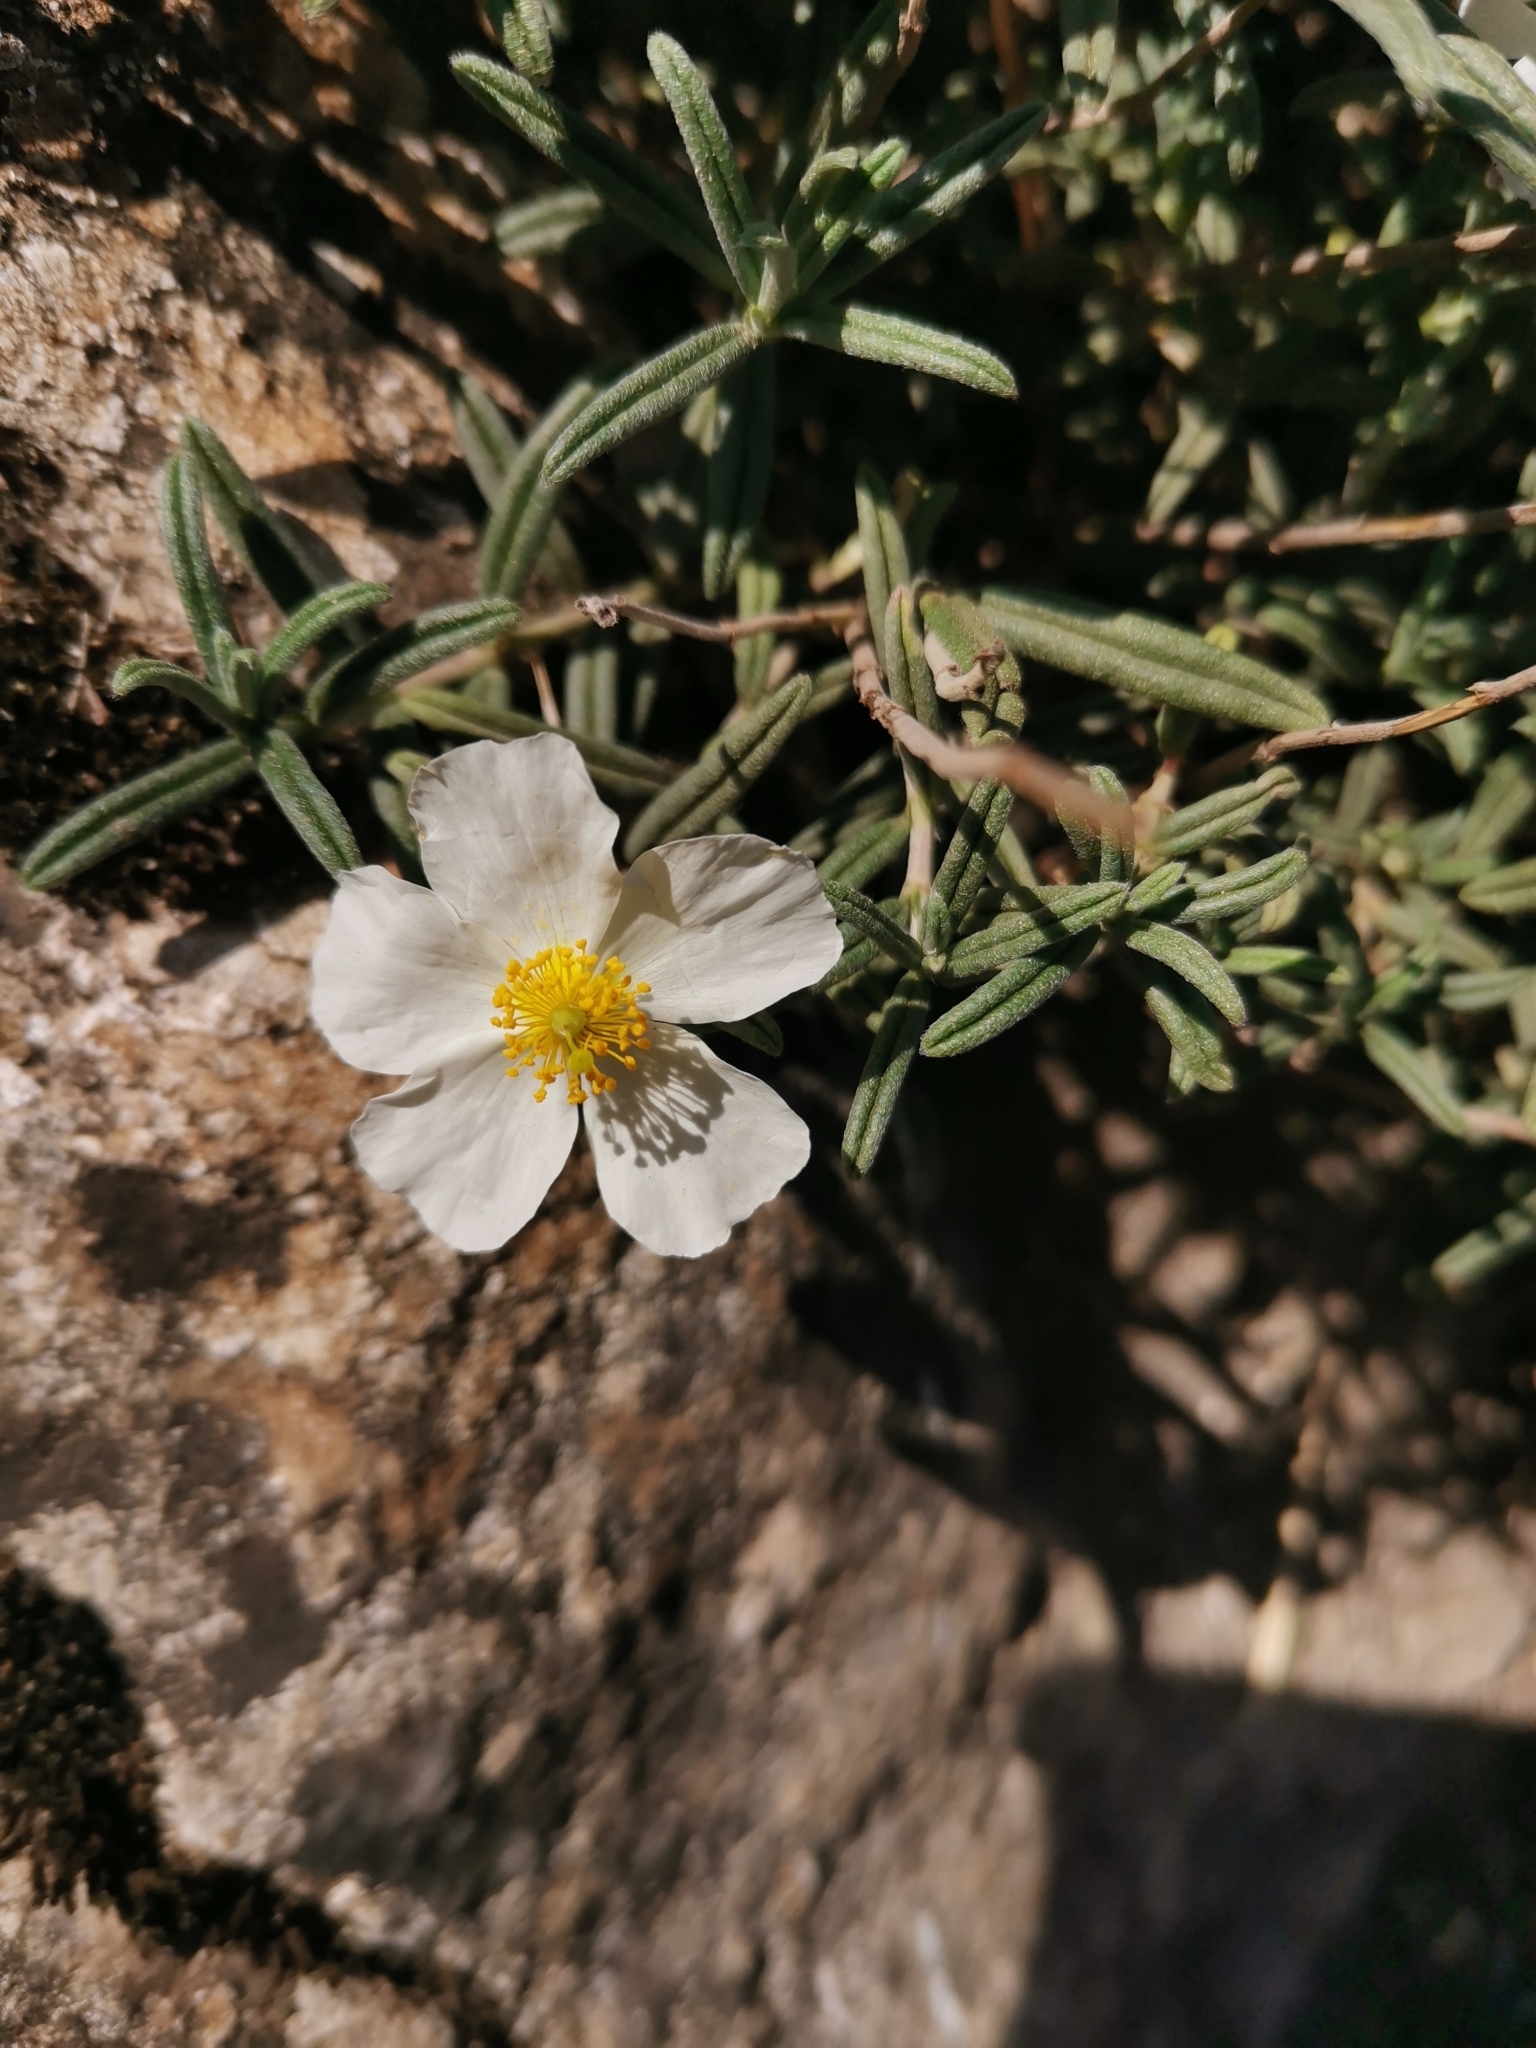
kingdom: Plantae
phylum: Tracheophyta
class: Magnoliopsida
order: Malvales
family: Cistaceae
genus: Helianthemum
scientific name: Helianthemum apenninum
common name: White rock-rose
